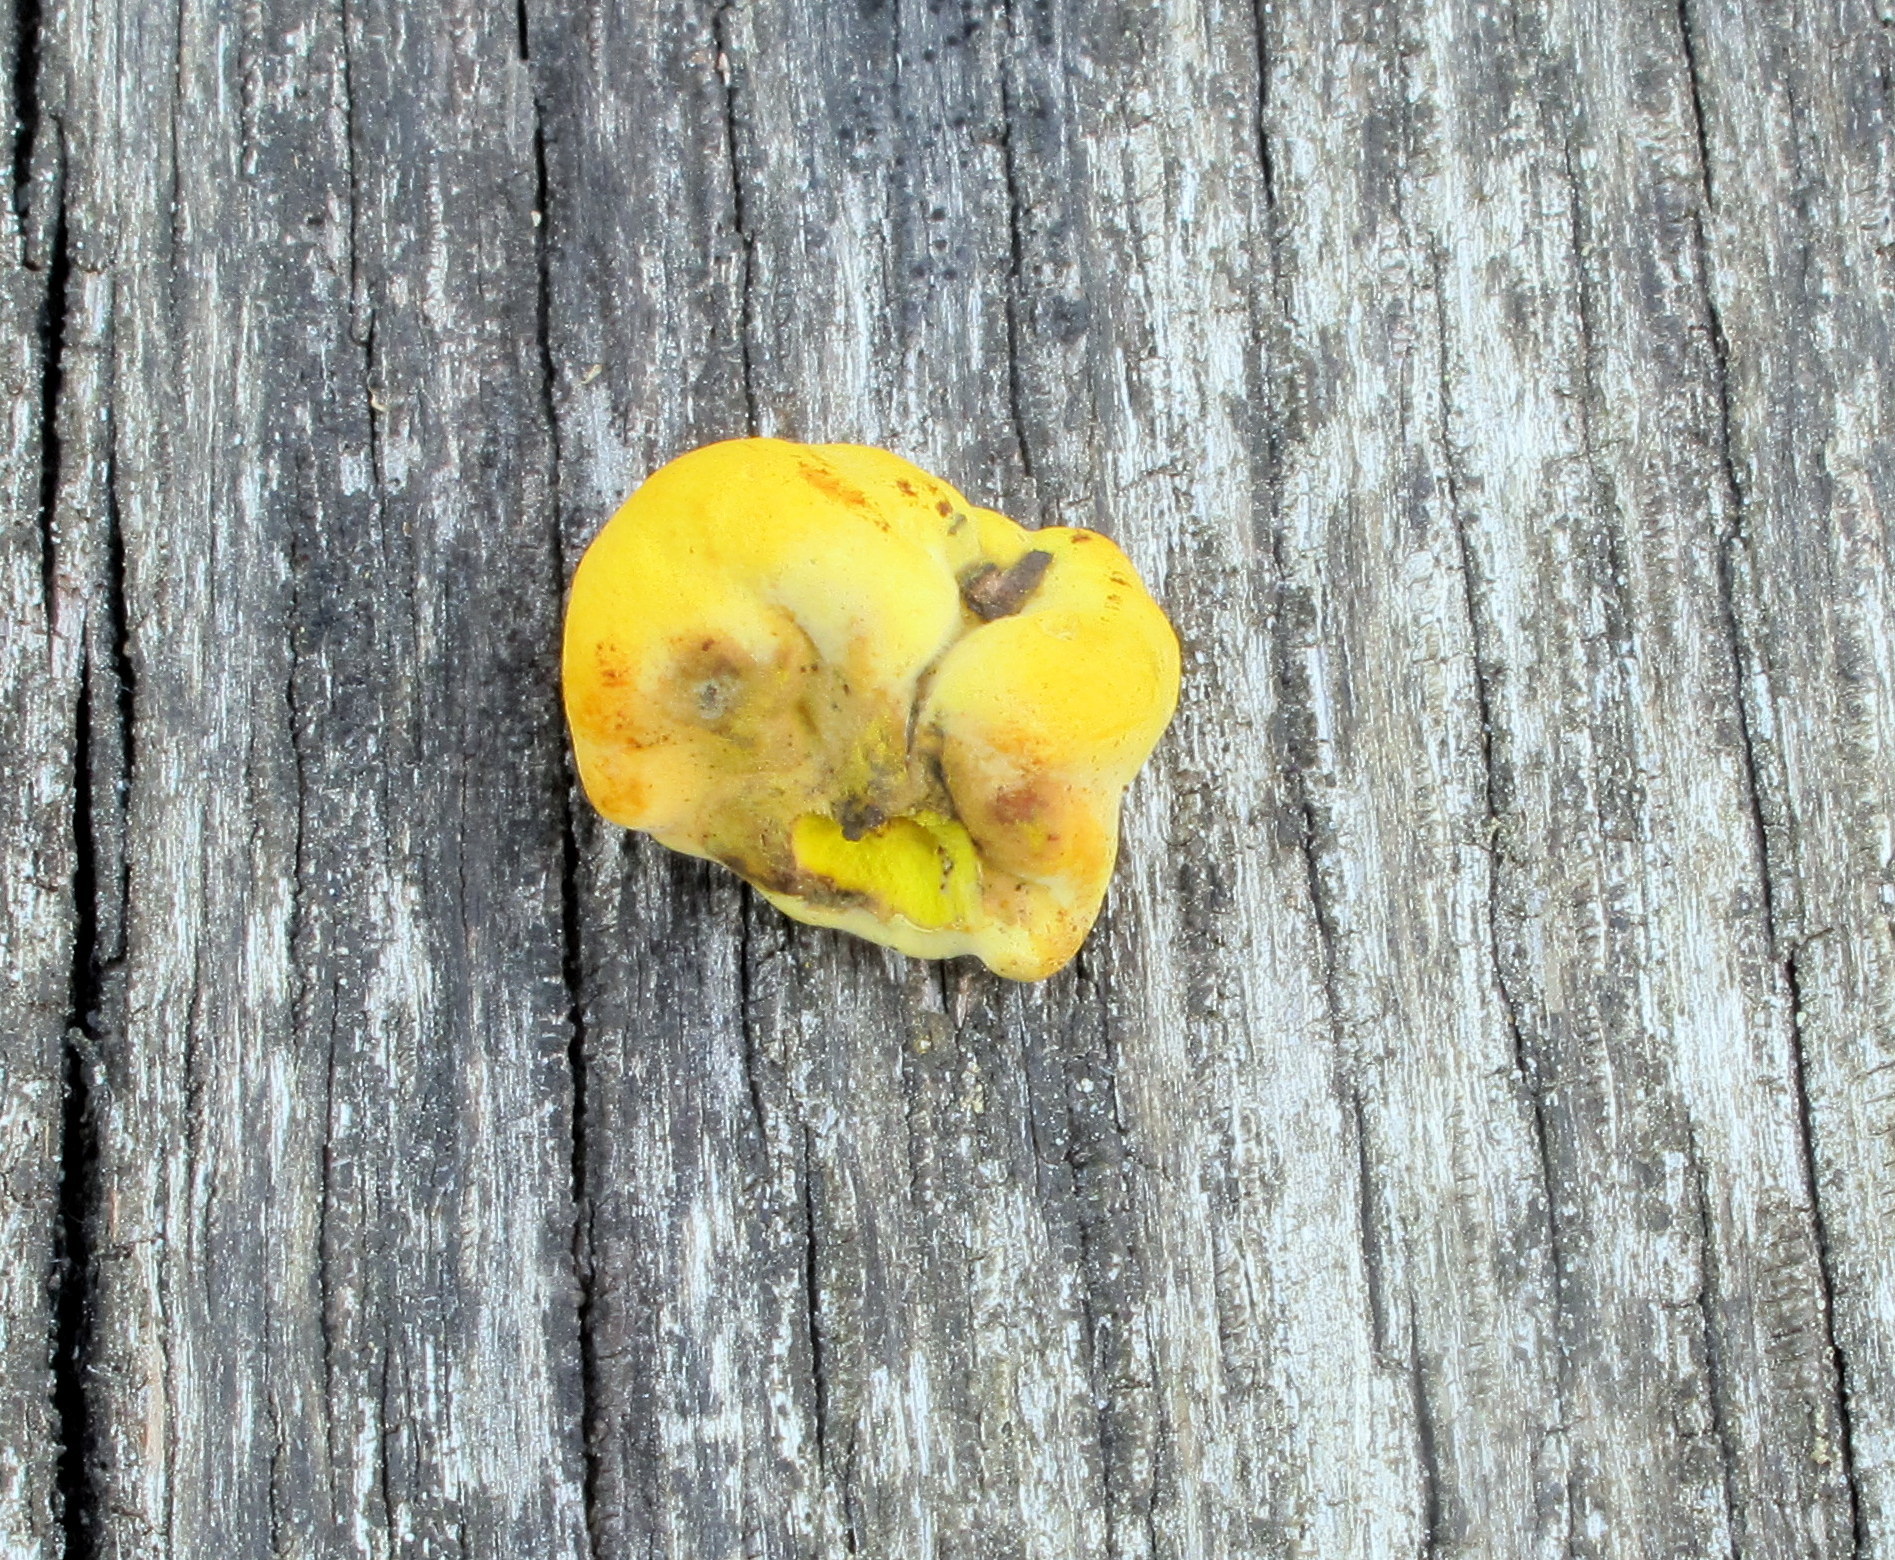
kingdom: Fungi
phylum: Ascomycota
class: Sordariomycetes
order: Xylariales
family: Hypoxylaceae
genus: Thuemenella
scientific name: Thuemenella cubispora
